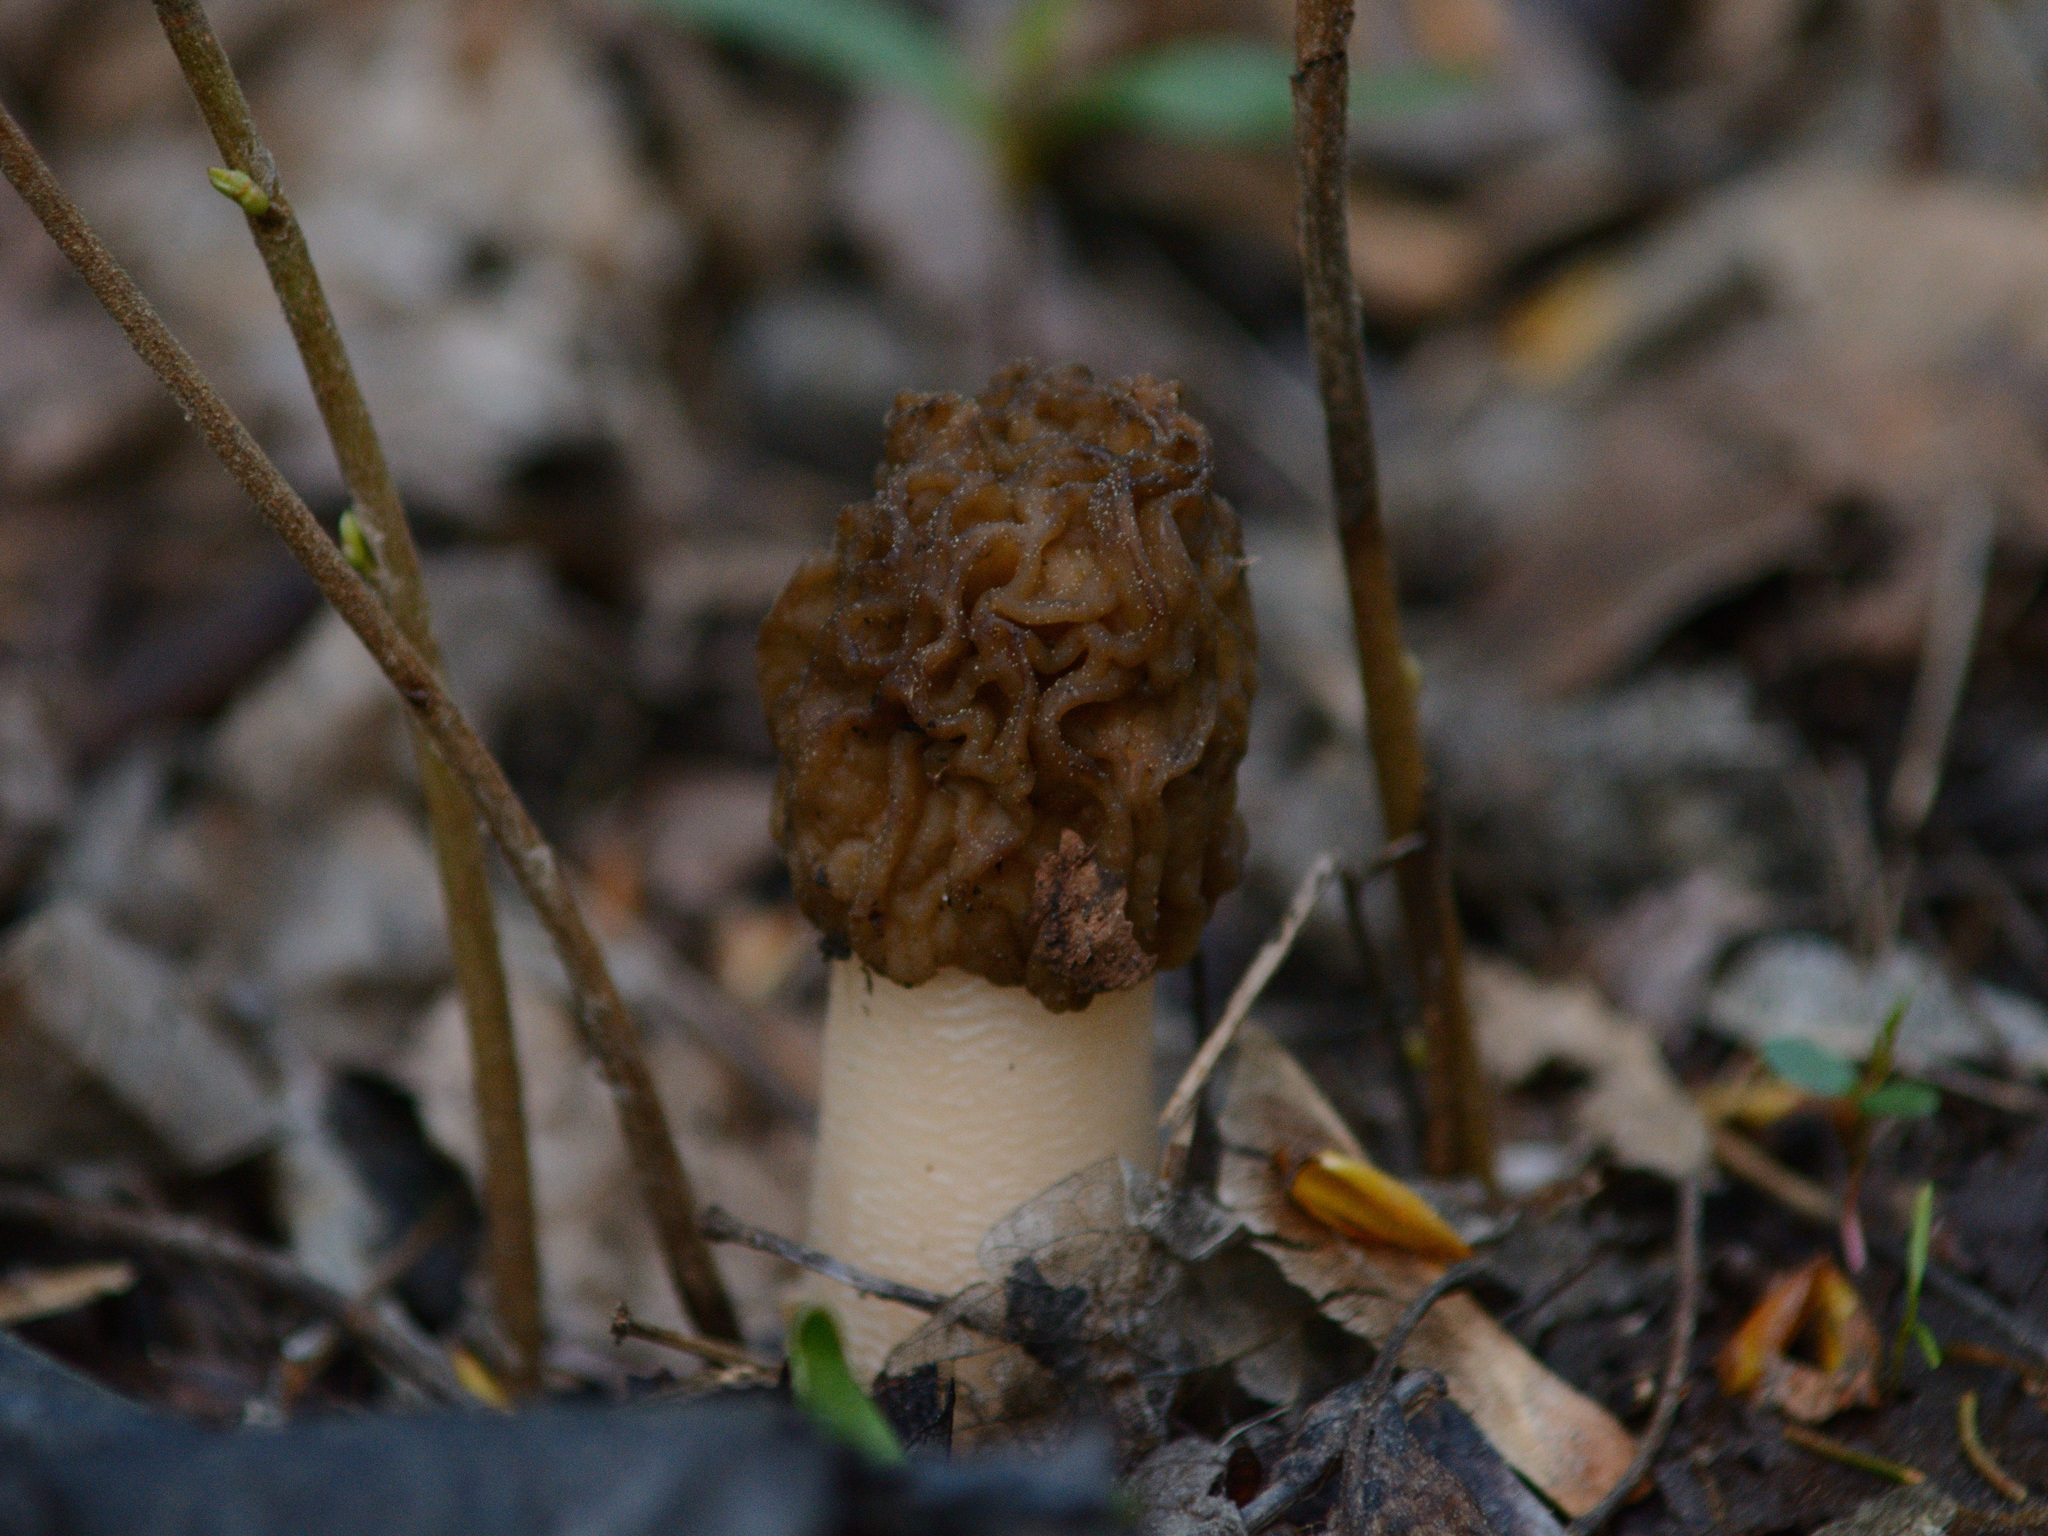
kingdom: Fungi
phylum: Ascomycota
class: Pezizomycetes
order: Pezizales
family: Morchellaceae
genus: Verpa
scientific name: Verpa bohemica
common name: Wrinkled thimble morel
